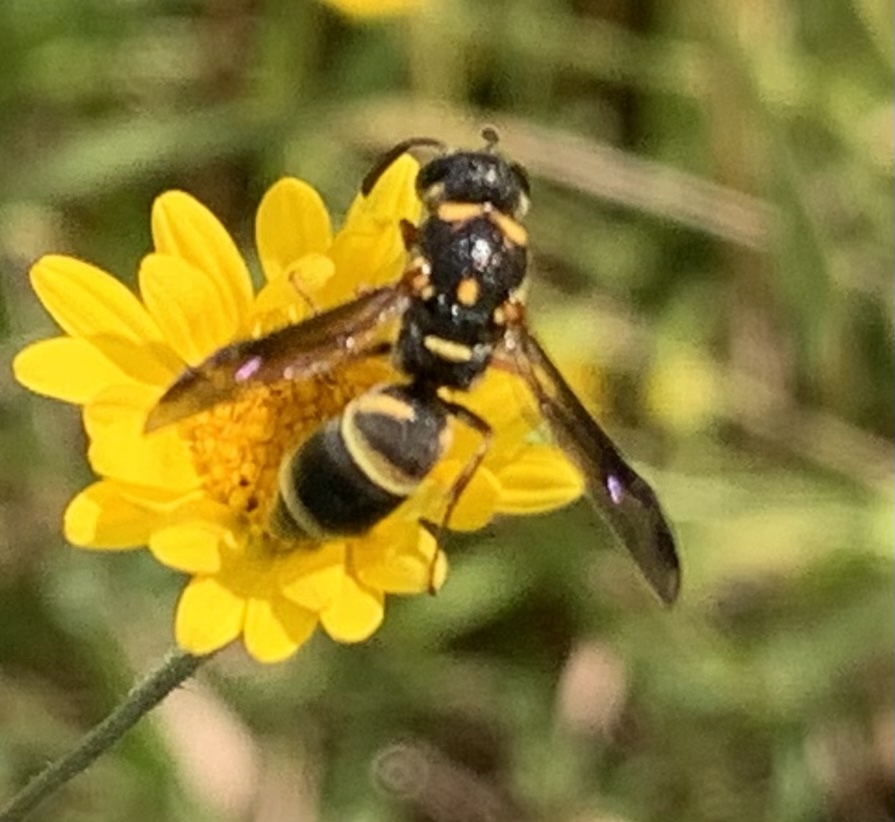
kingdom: Animalia
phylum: Arthropoda
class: Insecta
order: Hymenoptera
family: Eumenidae
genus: Parancistrocerus
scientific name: Parancistrocerus fulvipes
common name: Potter wasp
